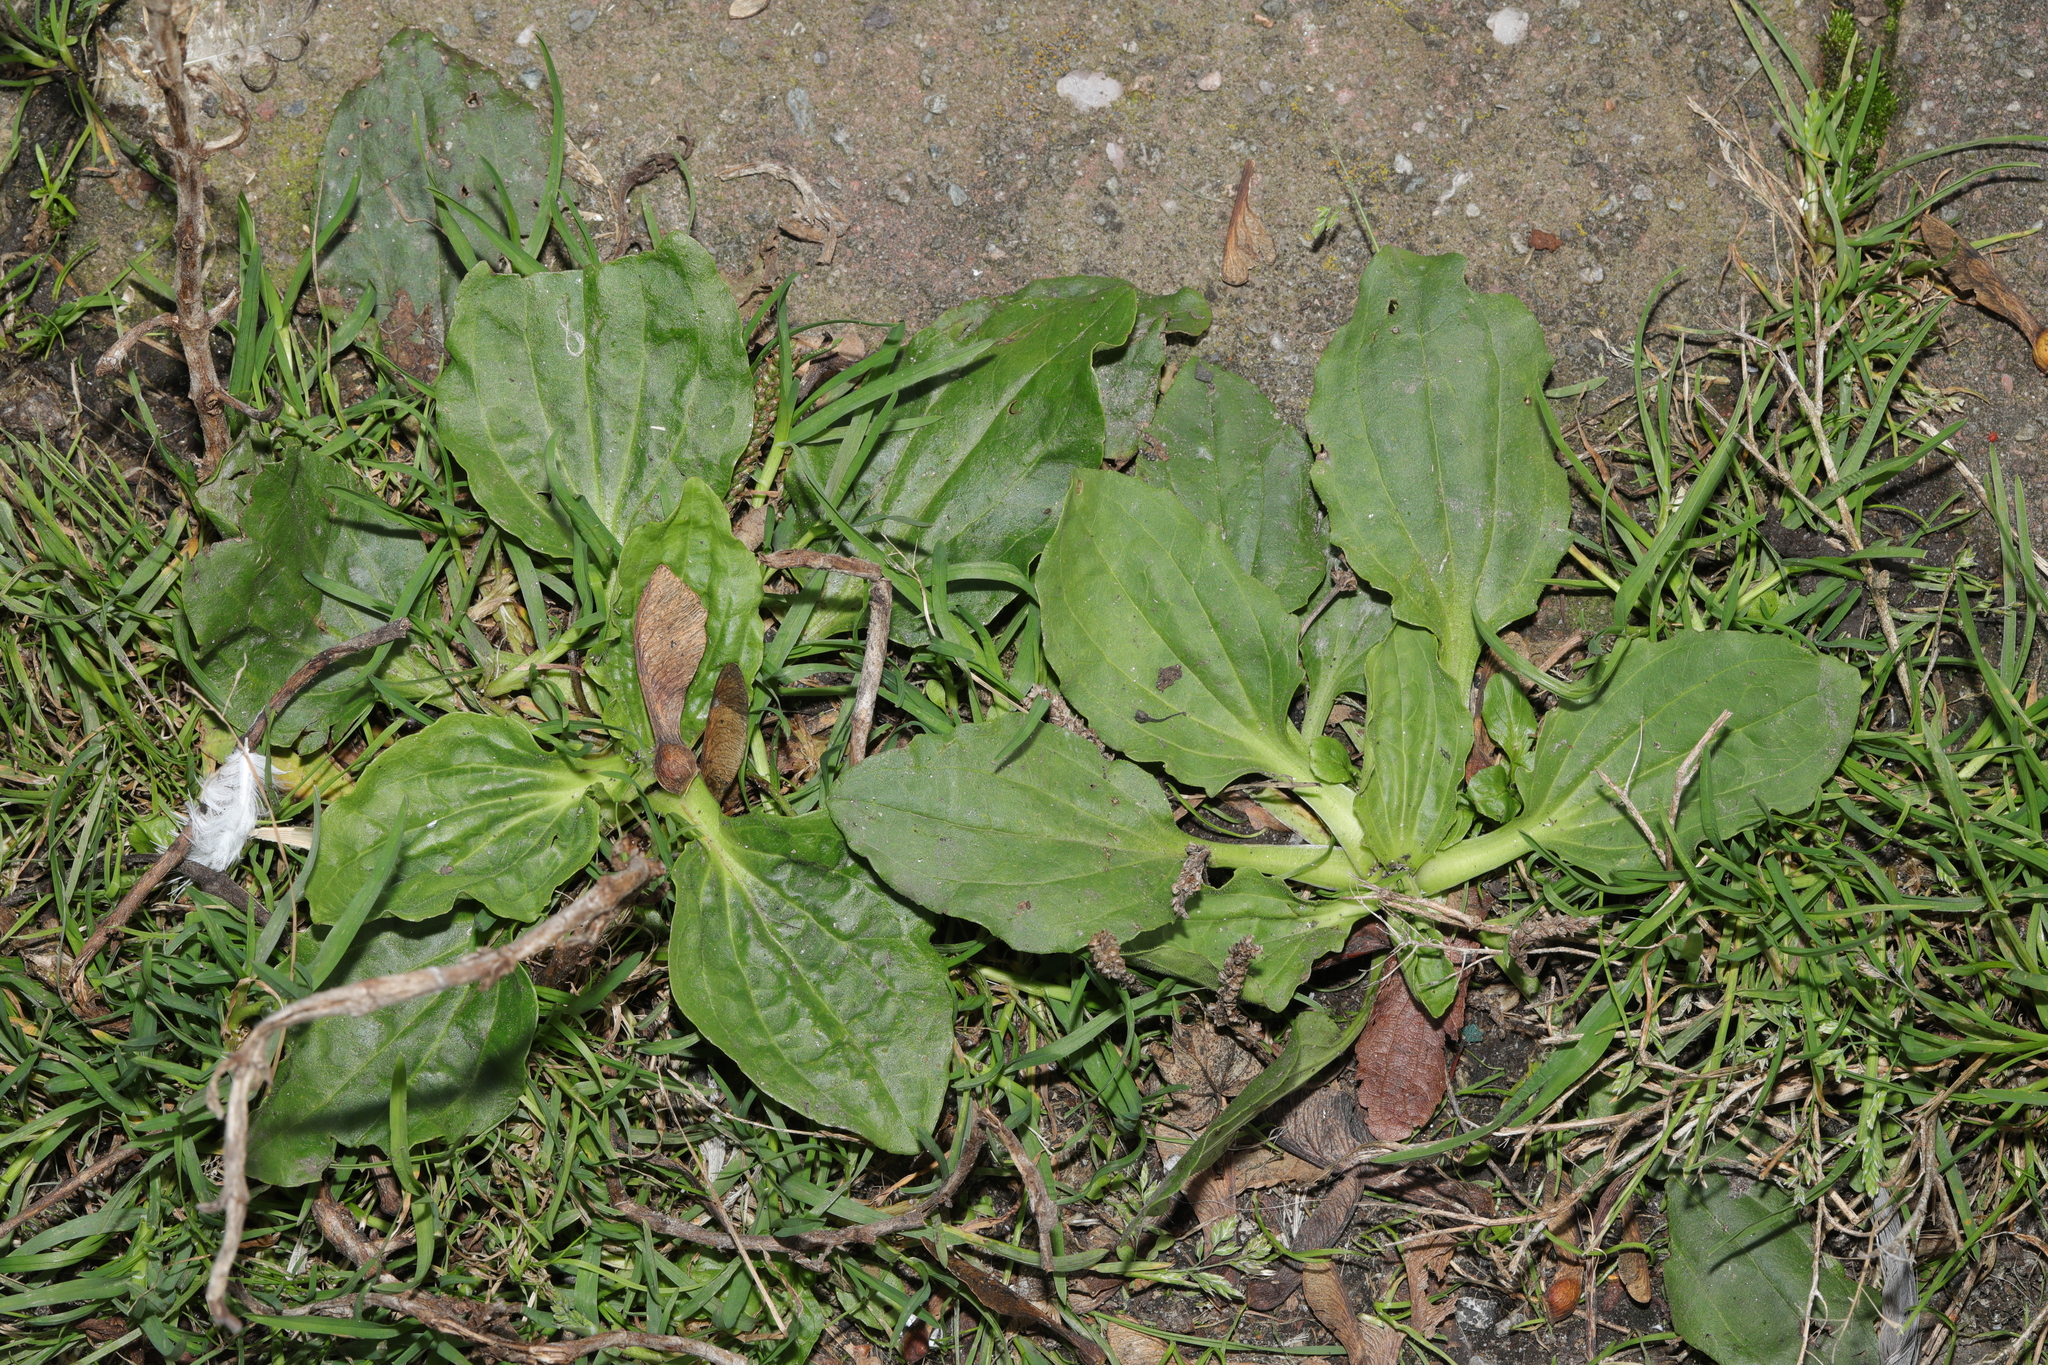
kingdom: Plantae
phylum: Tracheophyta
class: Magnoliopsida
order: Lamiales
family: Plantaginaceae
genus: Plantago
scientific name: Plantago major
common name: Common plantain
